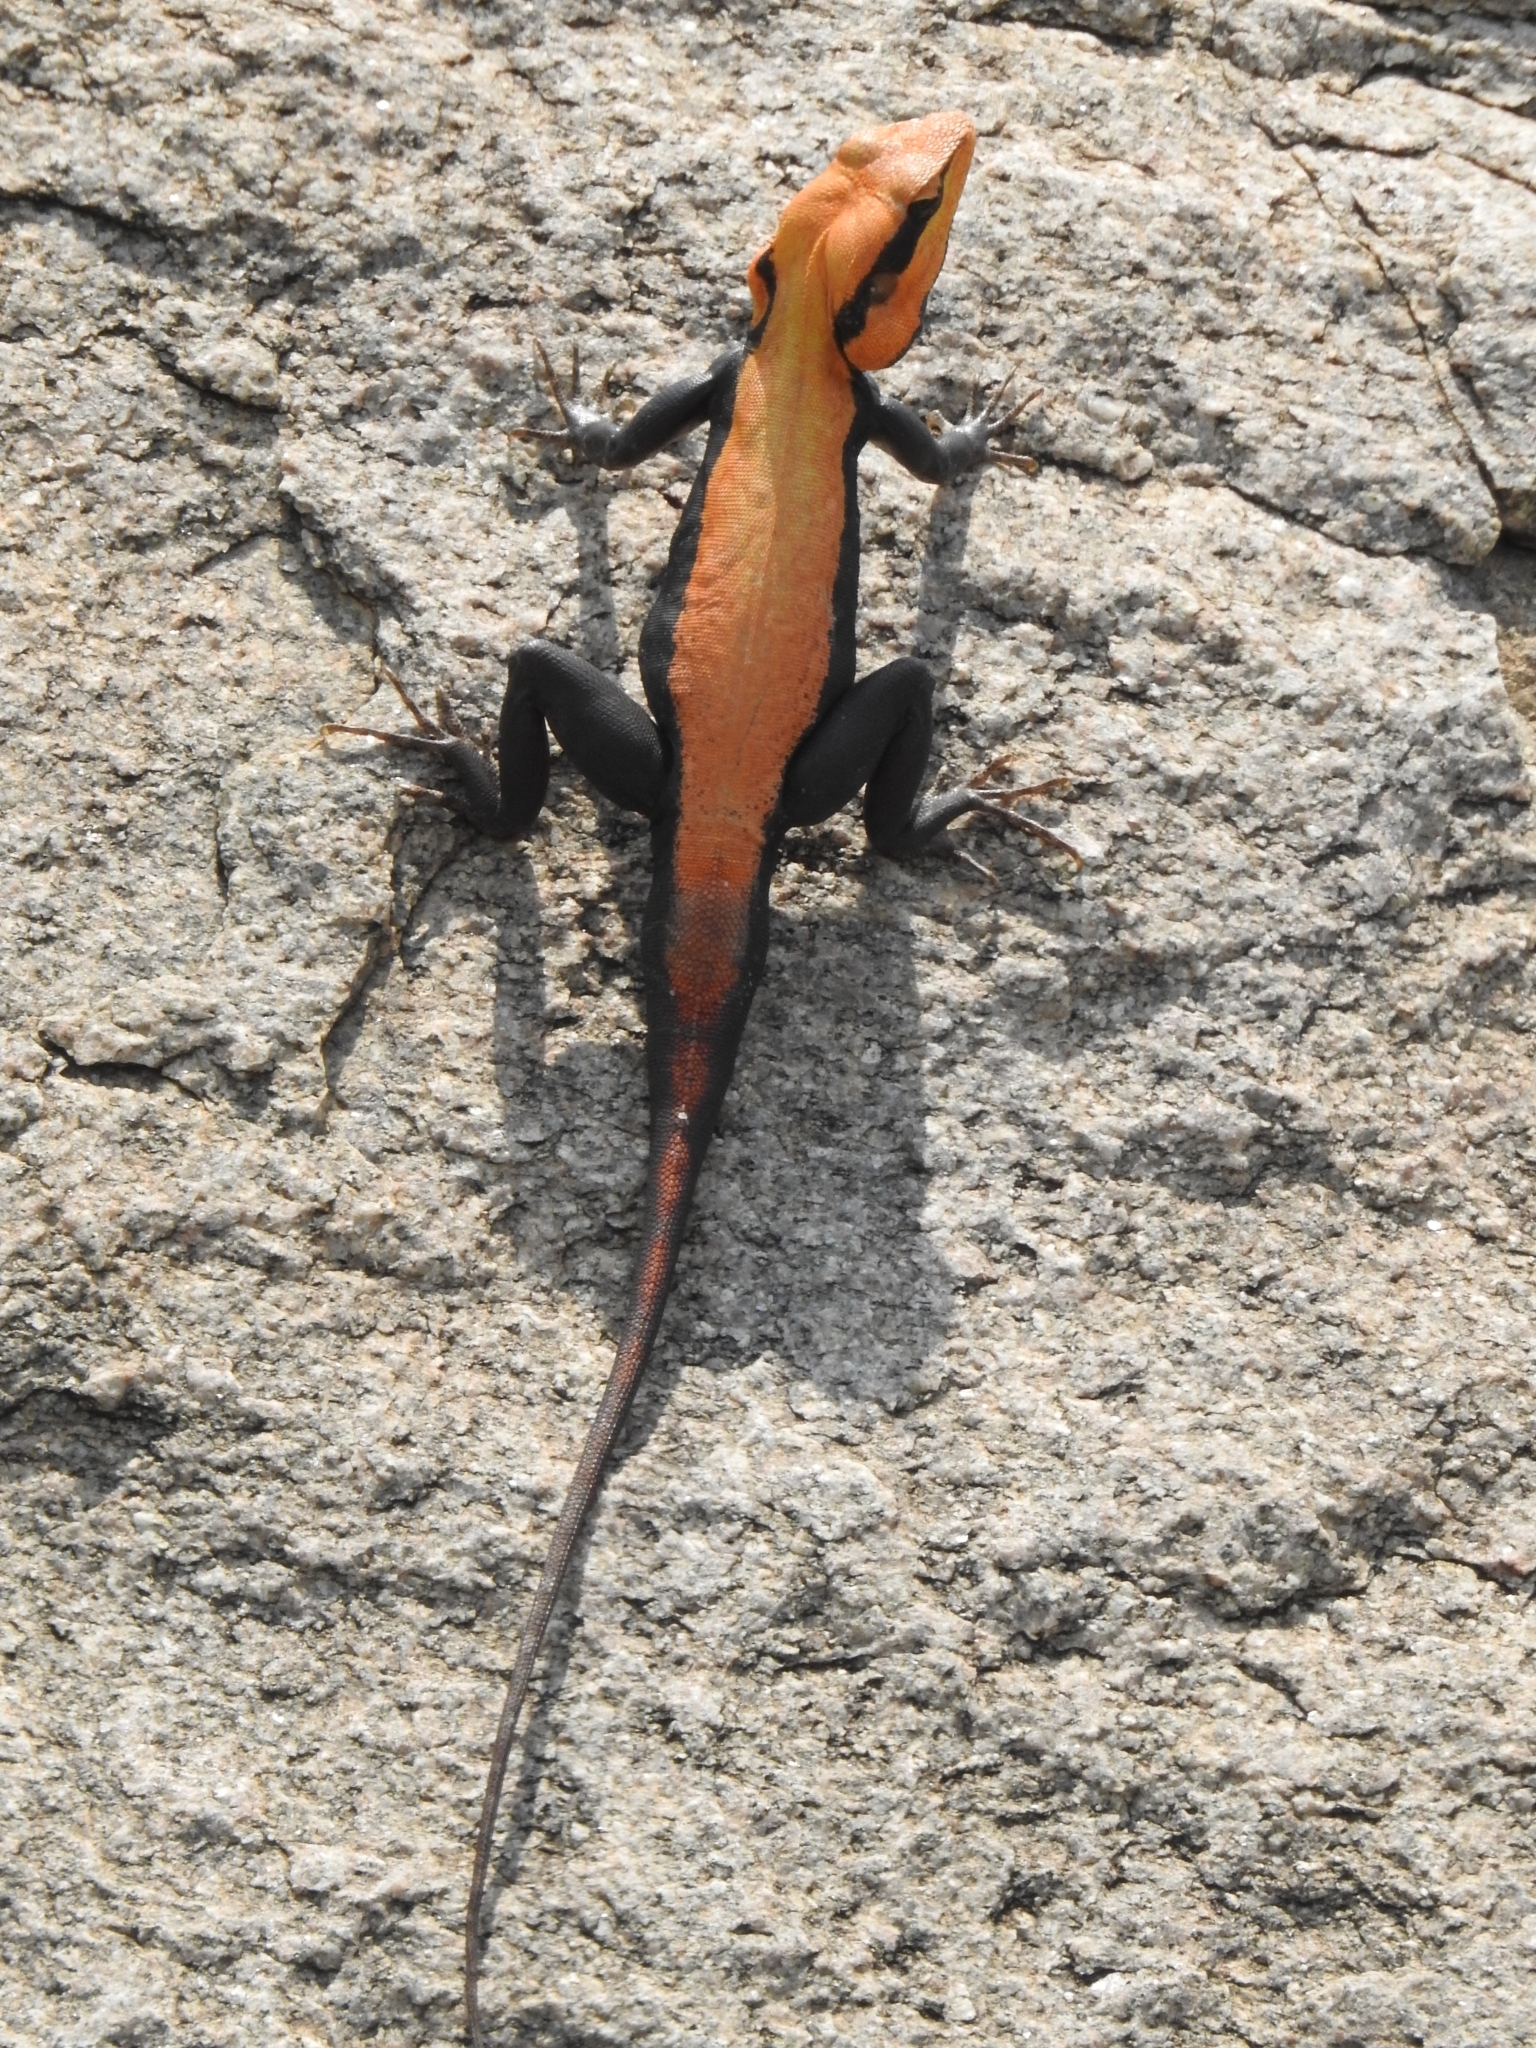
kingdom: Animalia
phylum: Chordata
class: Squamata
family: Agamidae
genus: Psammophilus
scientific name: Psammophilus dorsalis
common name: South indian rock agama
